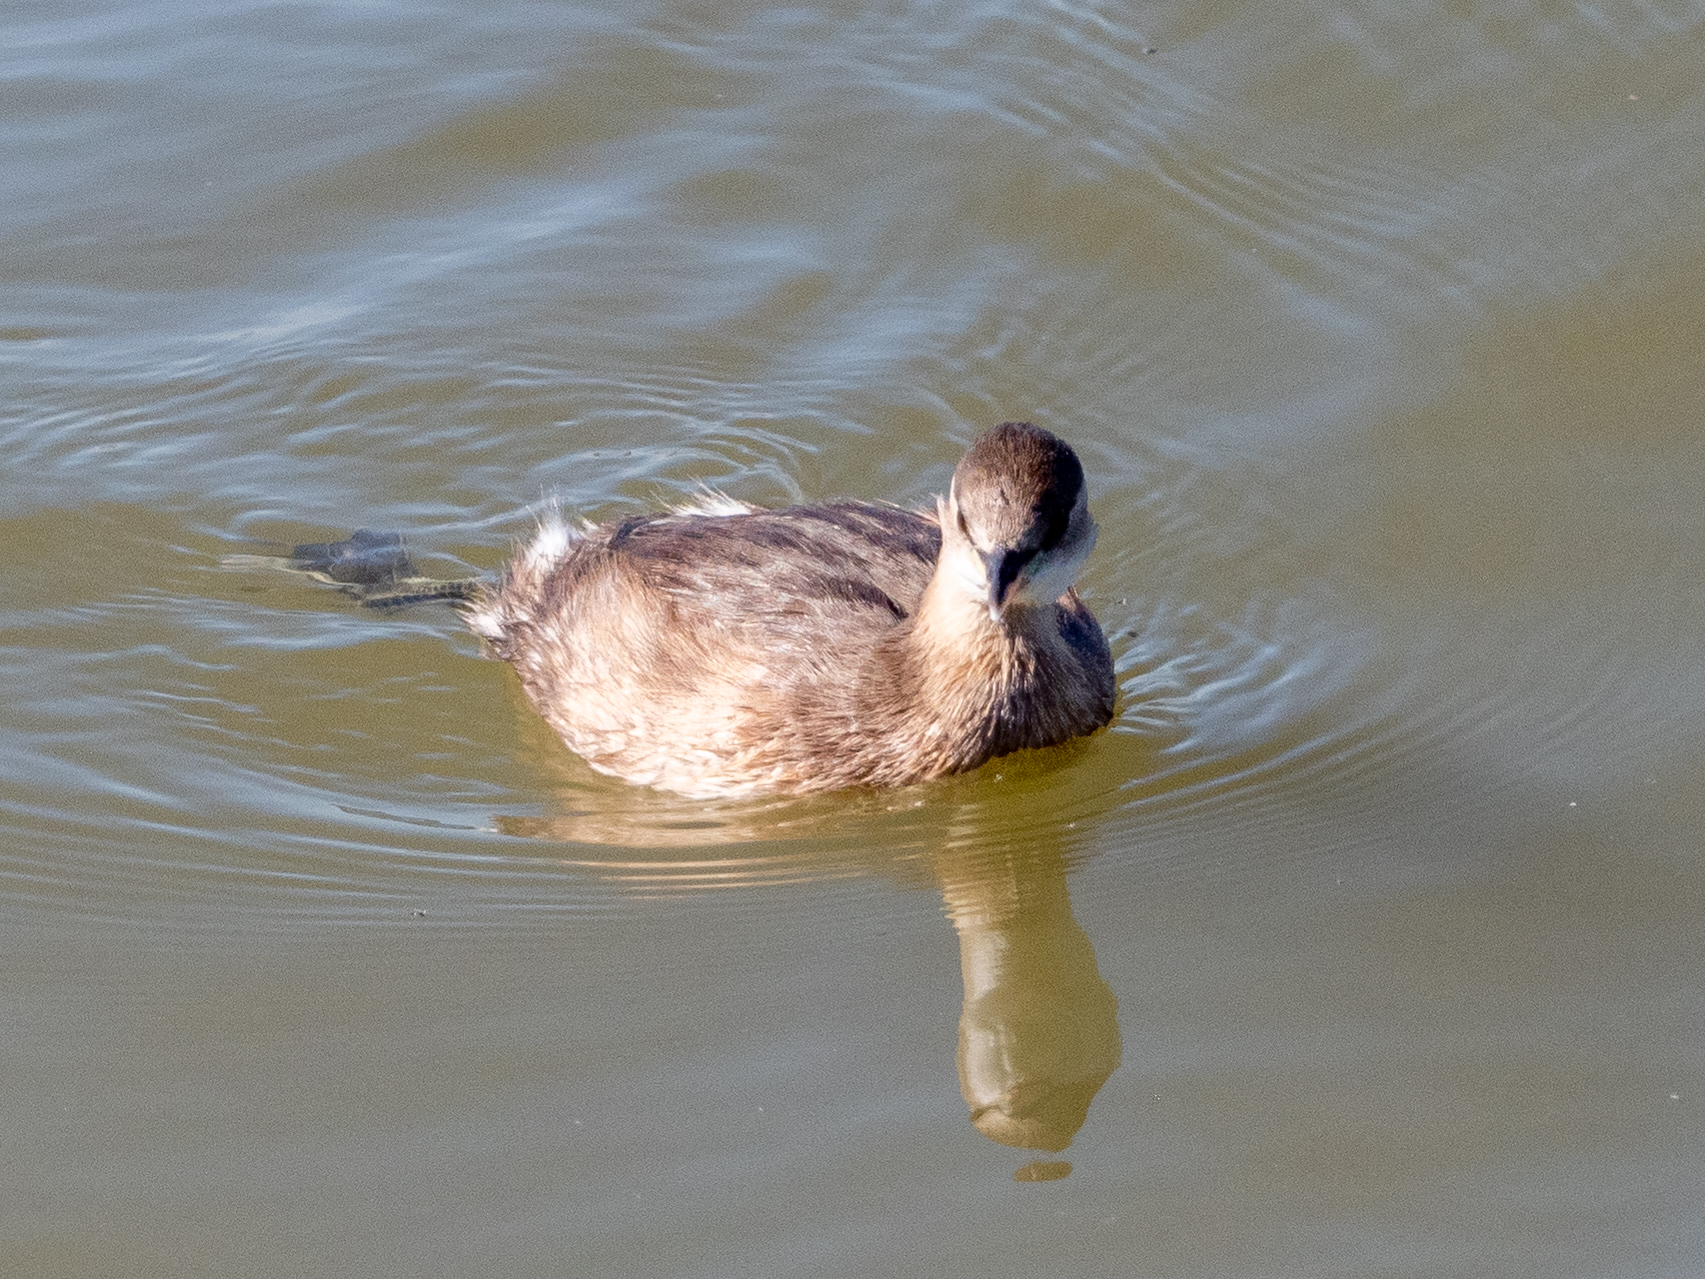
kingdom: Animalia
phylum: Chordata
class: Aves
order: Podicipediformes
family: Podicipedidae
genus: Tachybaptus
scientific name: Tachybaptus ruficollis
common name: Little grebe
